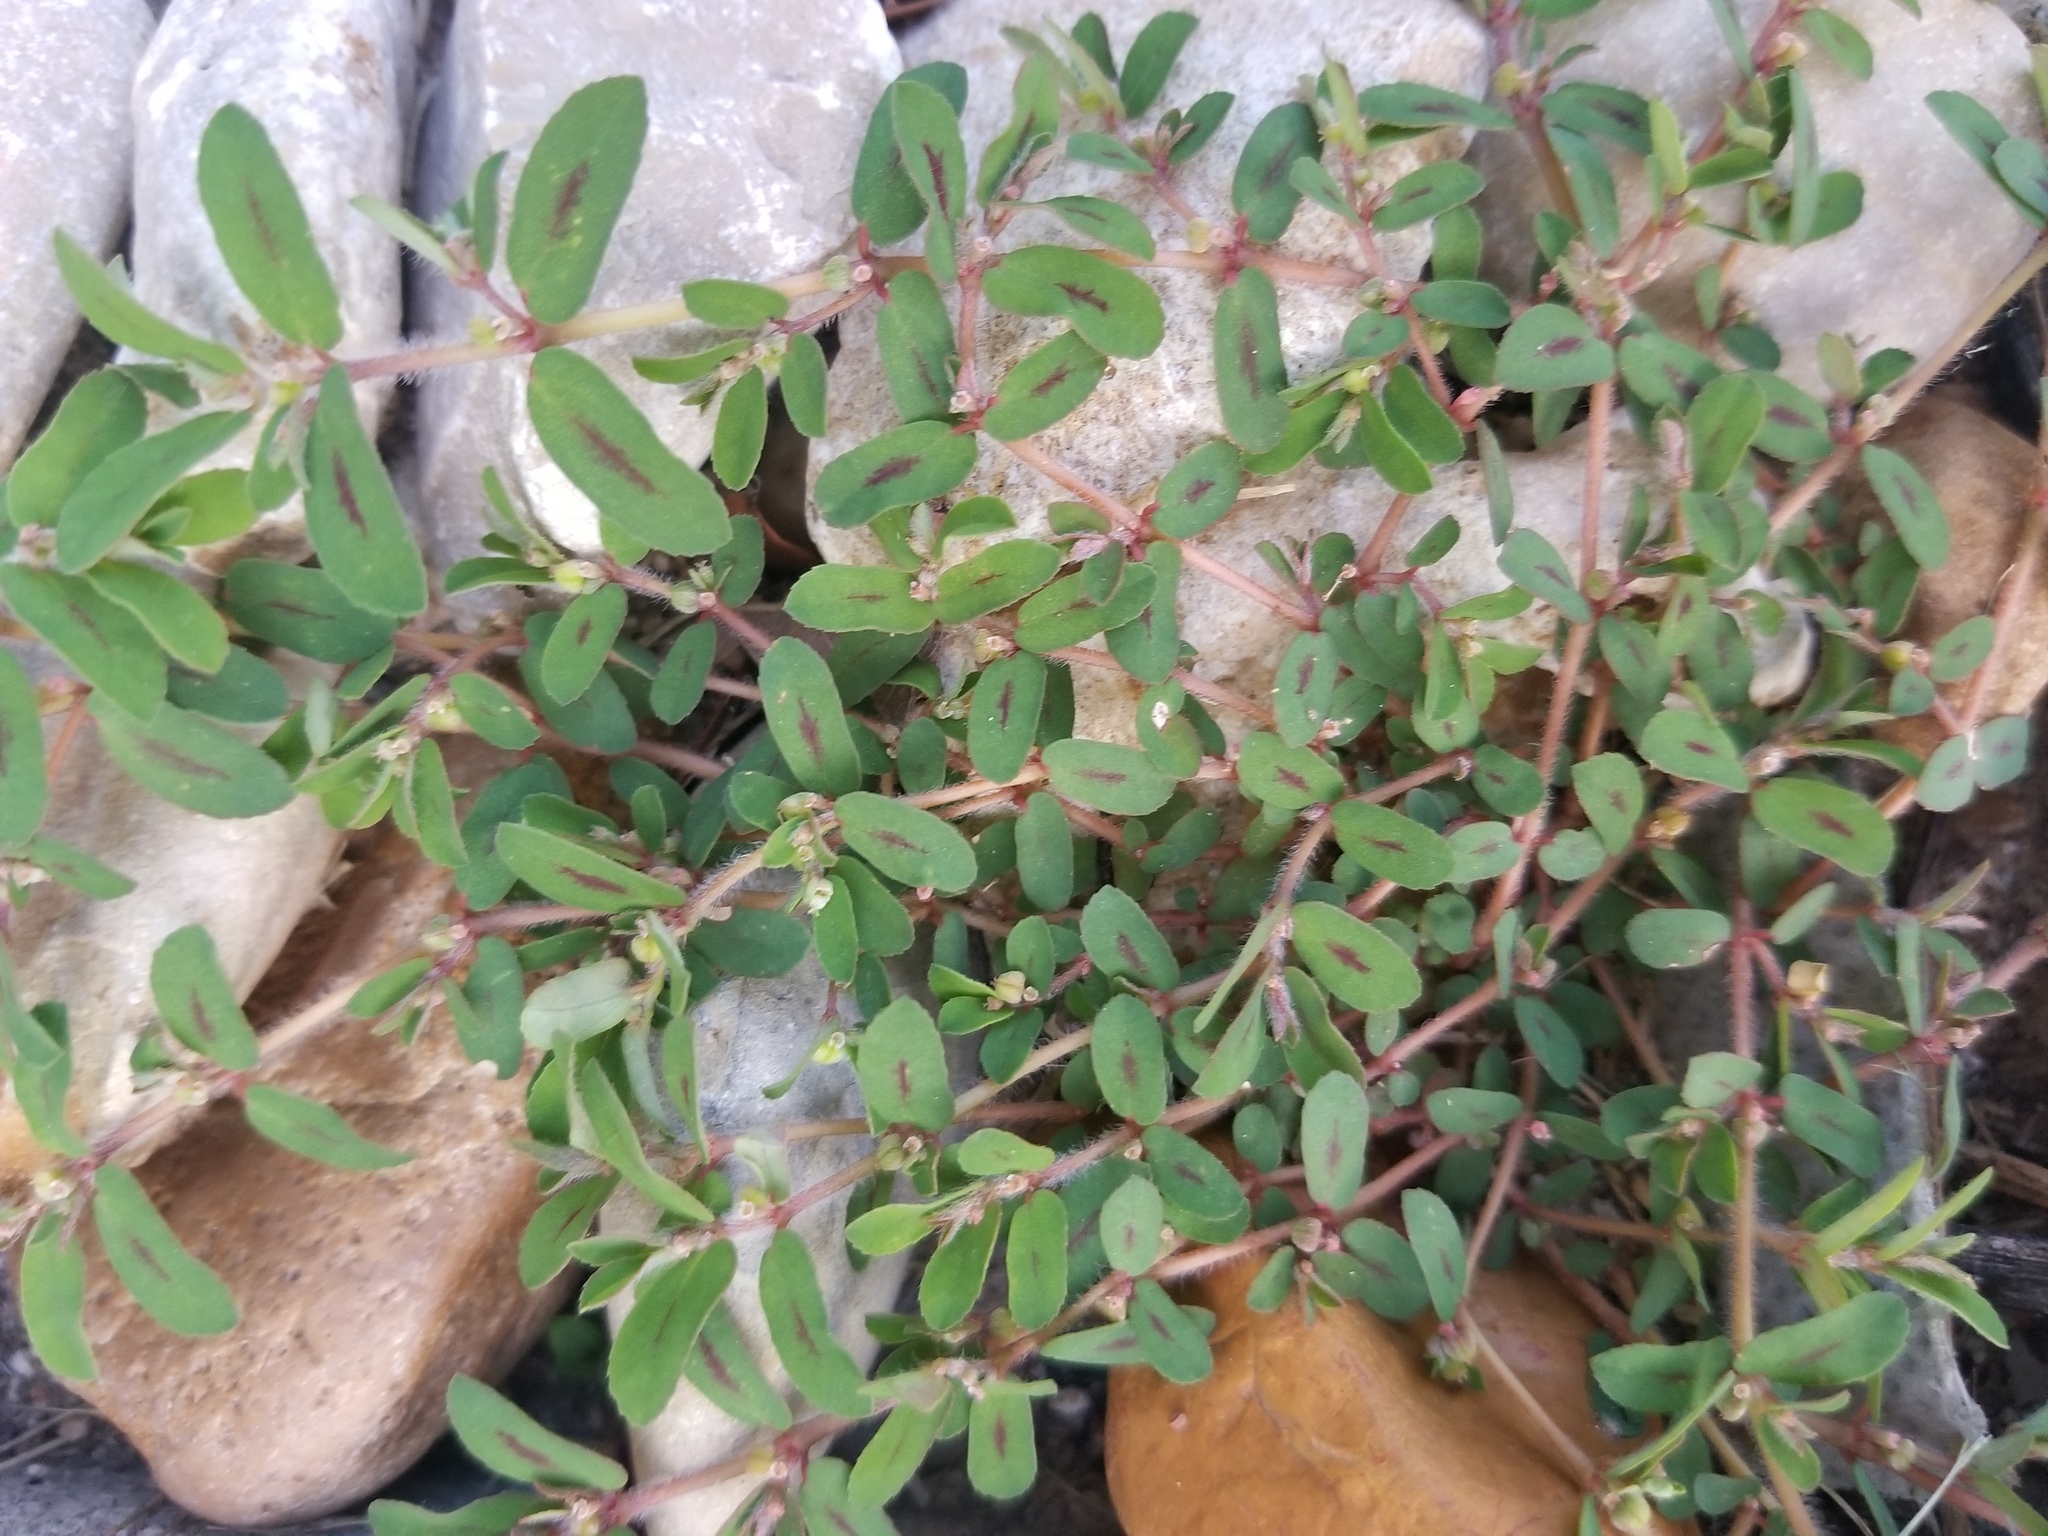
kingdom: Plantae
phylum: Tracheophyta
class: Magnoliopsida
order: Malpighiales
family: Euphorbiaceae
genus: Euphorbia
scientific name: Euphorbia maculata
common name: Spotted spurge
